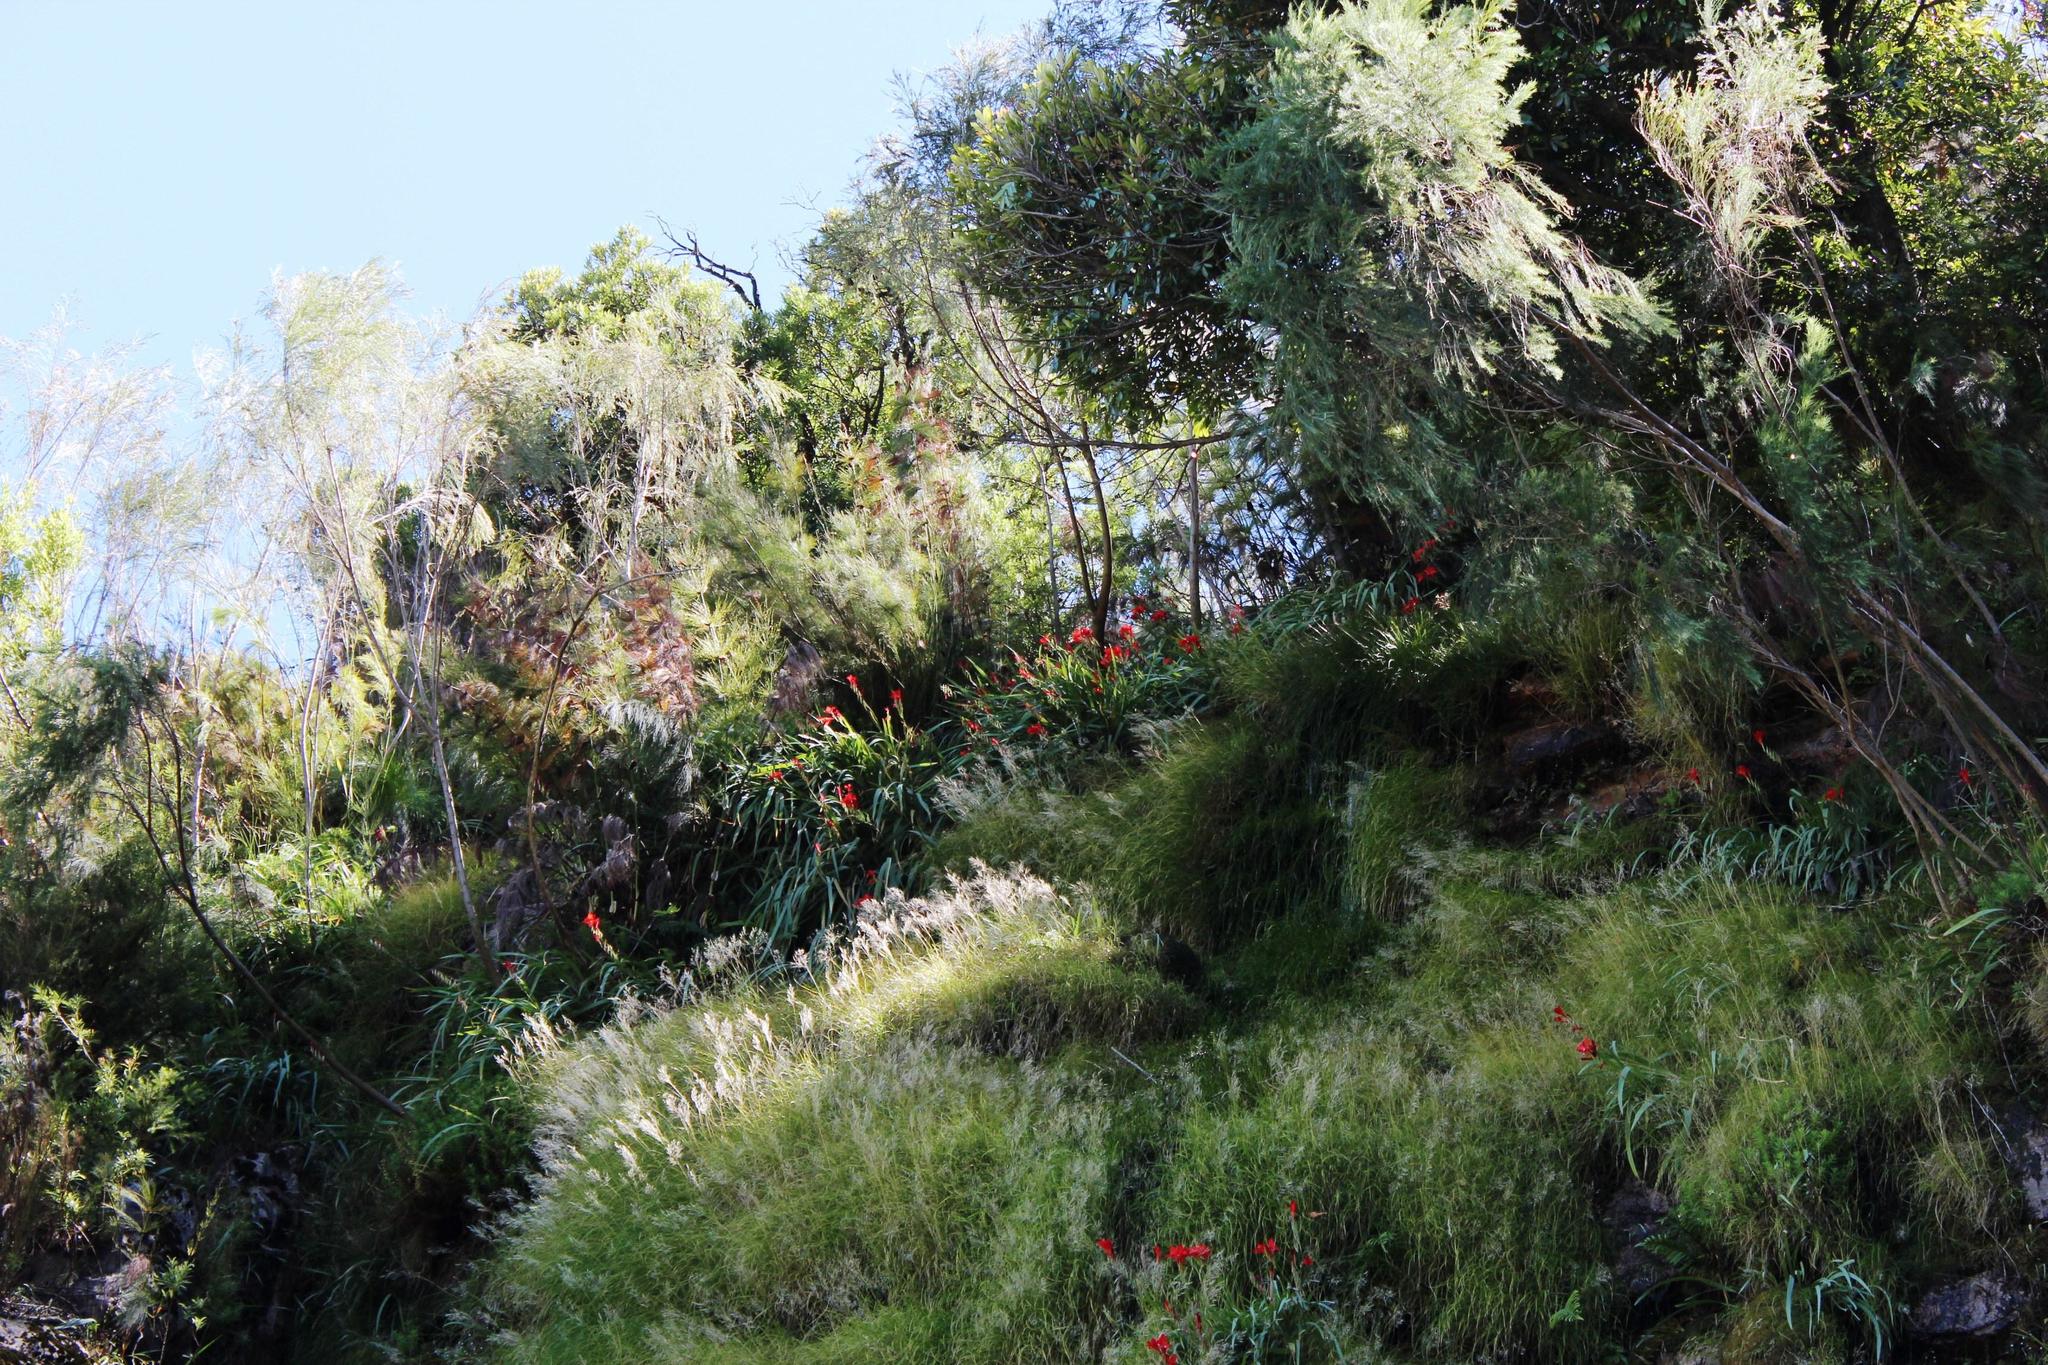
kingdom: Plantae
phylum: Tracheophyta
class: Liliopsida
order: Poales
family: Poaceae
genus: Pentameris
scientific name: Pentameris capensis
